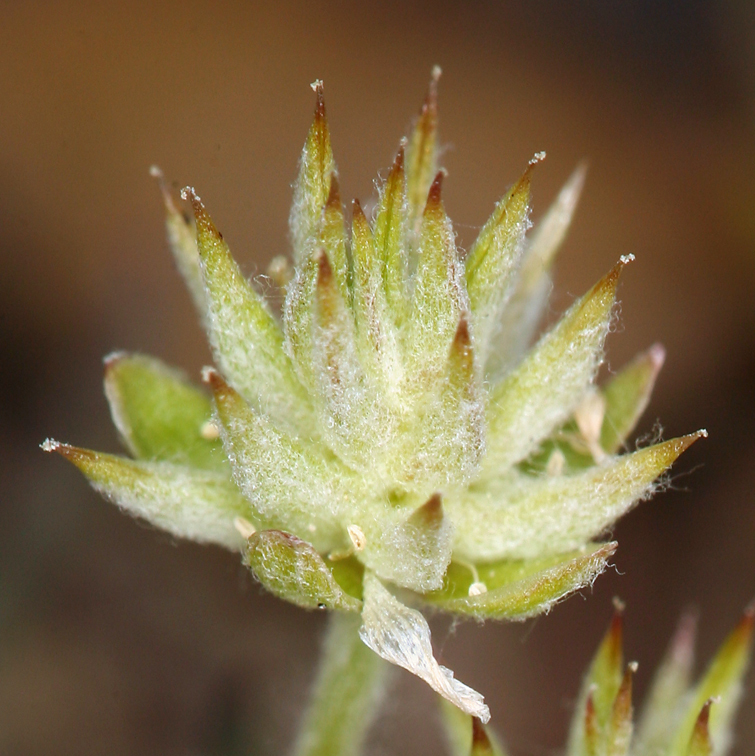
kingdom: Plantae
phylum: Tracheophyta
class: Magnoliopsida
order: Ranunculales
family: Ranunculaceae
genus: Ceratocephala
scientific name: Ceratocephala orthoceras
